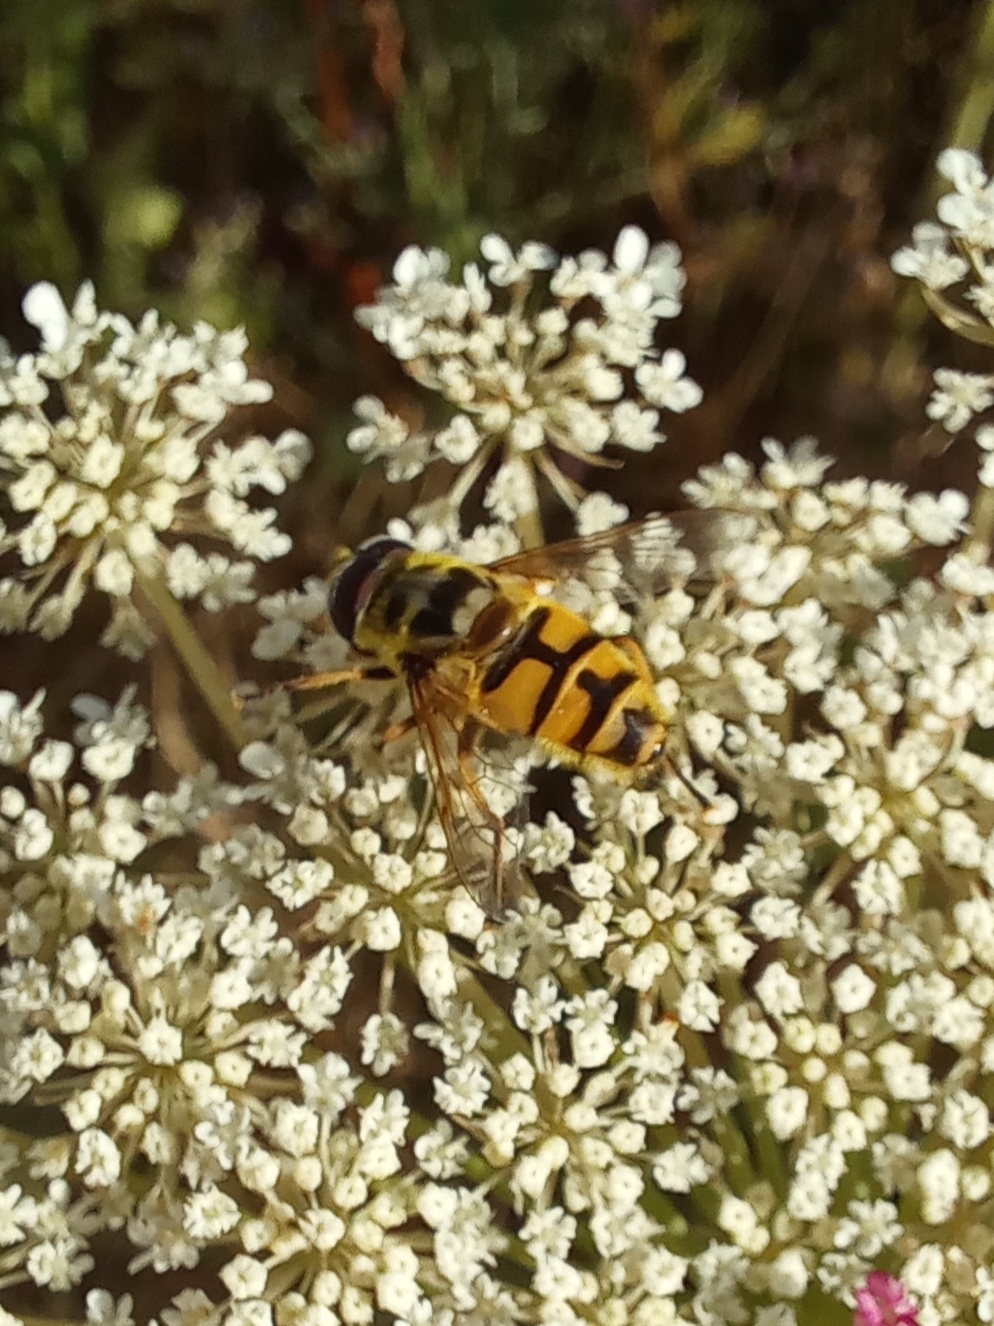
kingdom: Animalia
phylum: Arthropoda
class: Insecta
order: Diptera
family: Syrphidae
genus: Myathropa
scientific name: Myathropa florea
